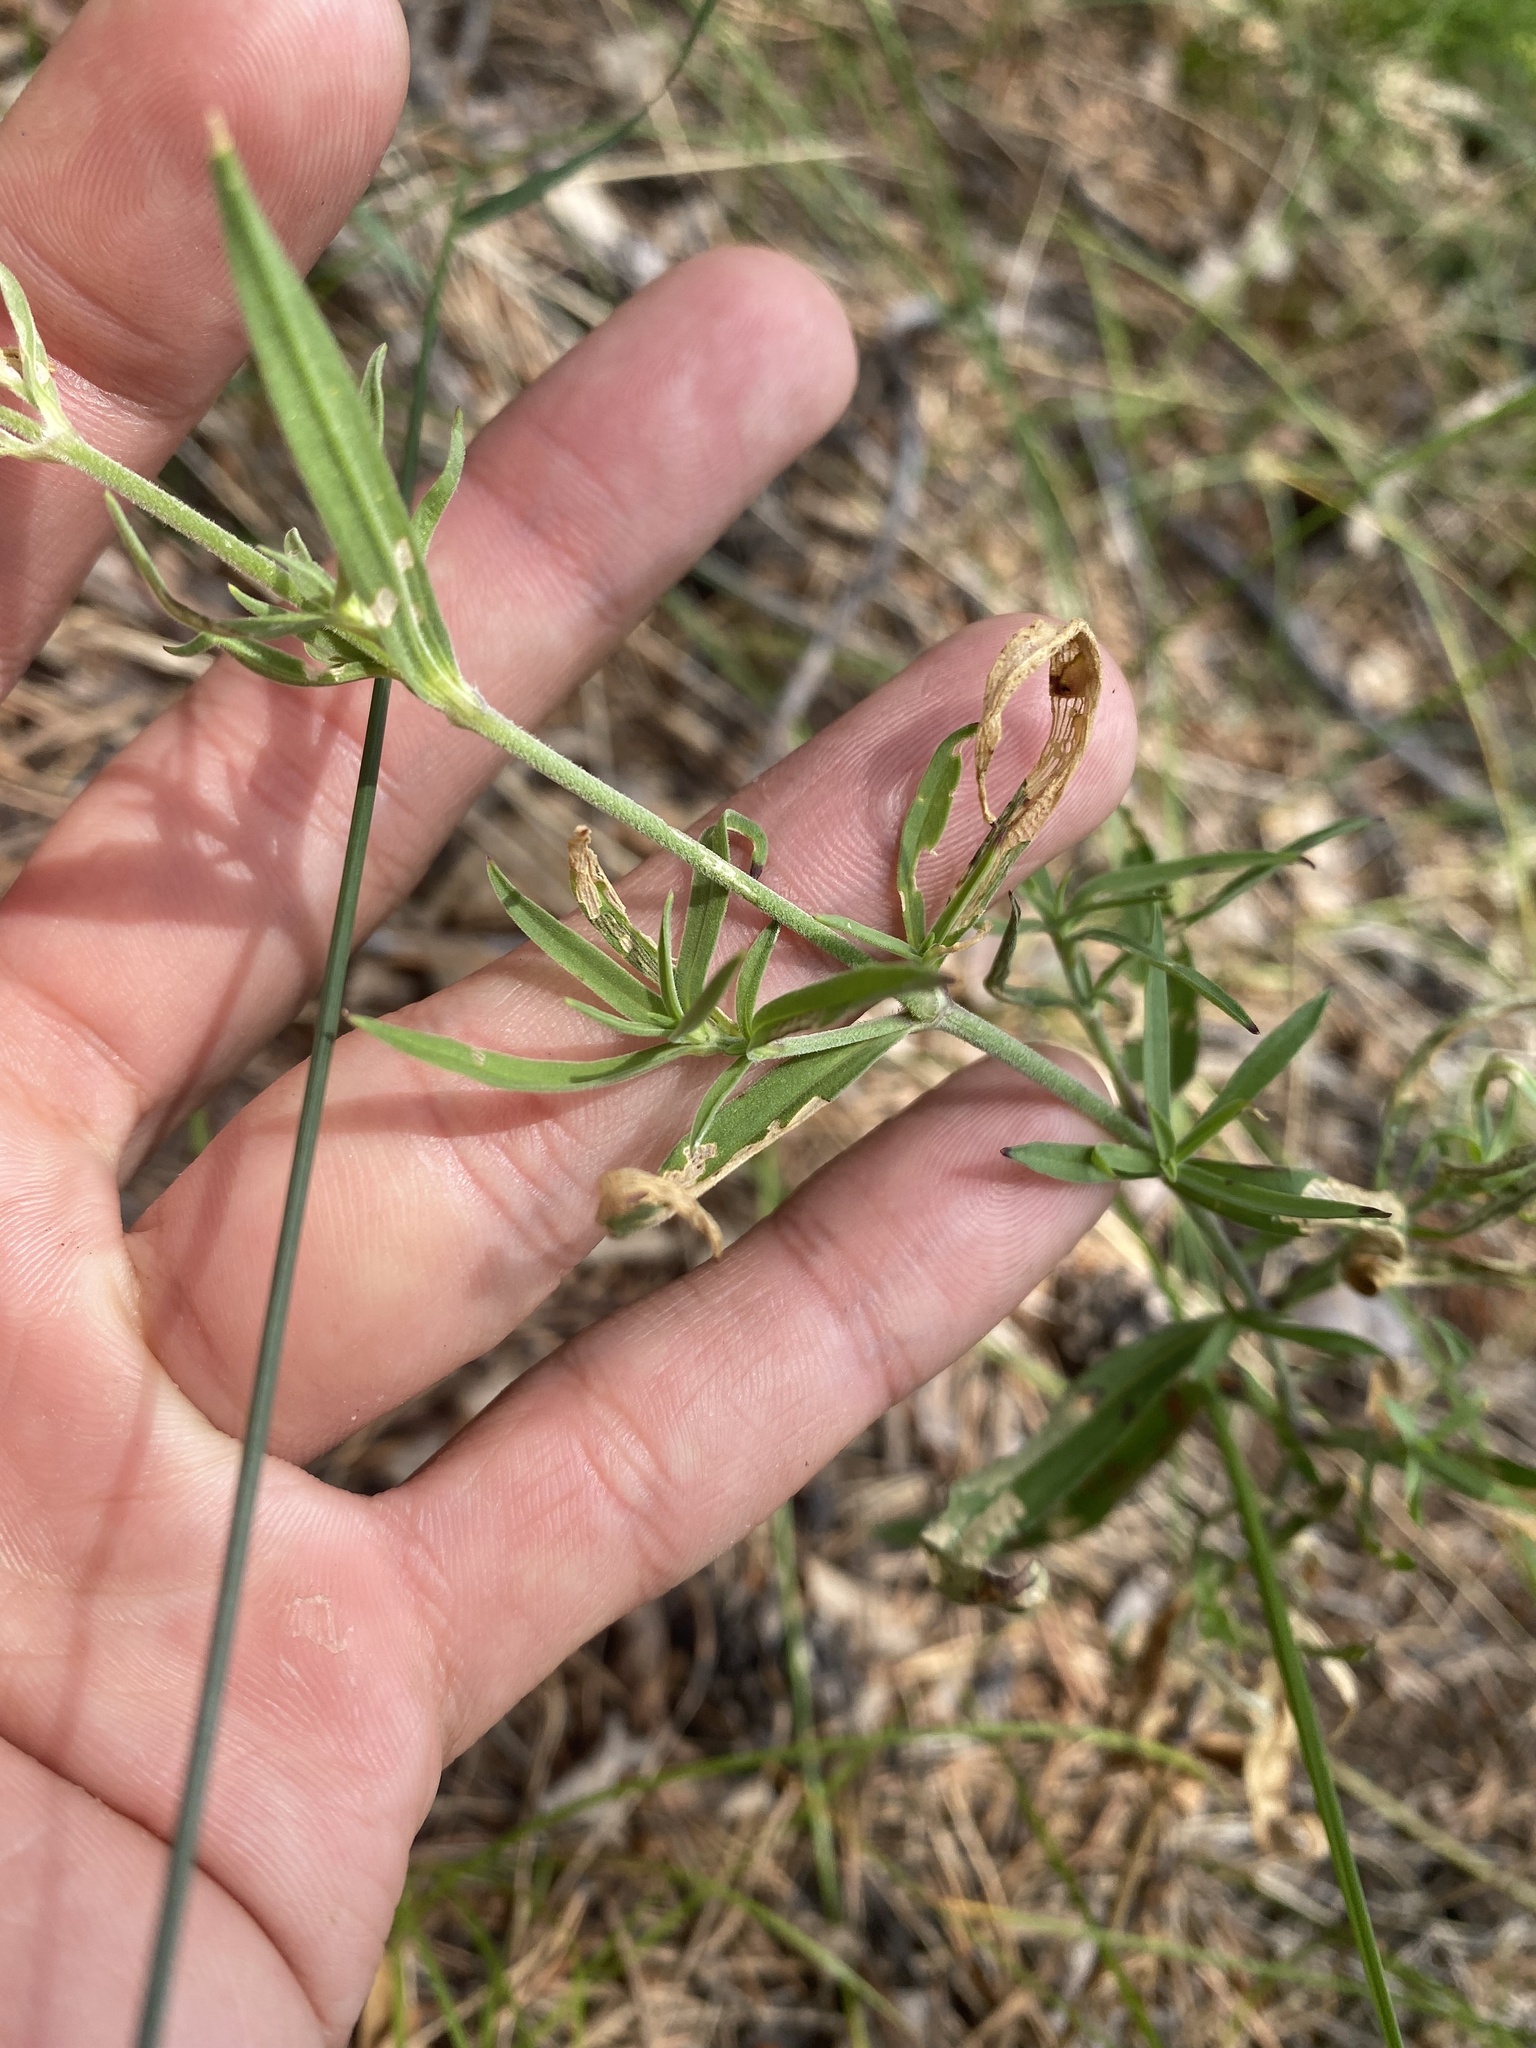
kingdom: Plantae
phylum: Tracheophyta
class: Magnoliopsida
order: Caryophyllales
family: Caryophyllaceae
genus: Silene
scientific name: Silene amoena
